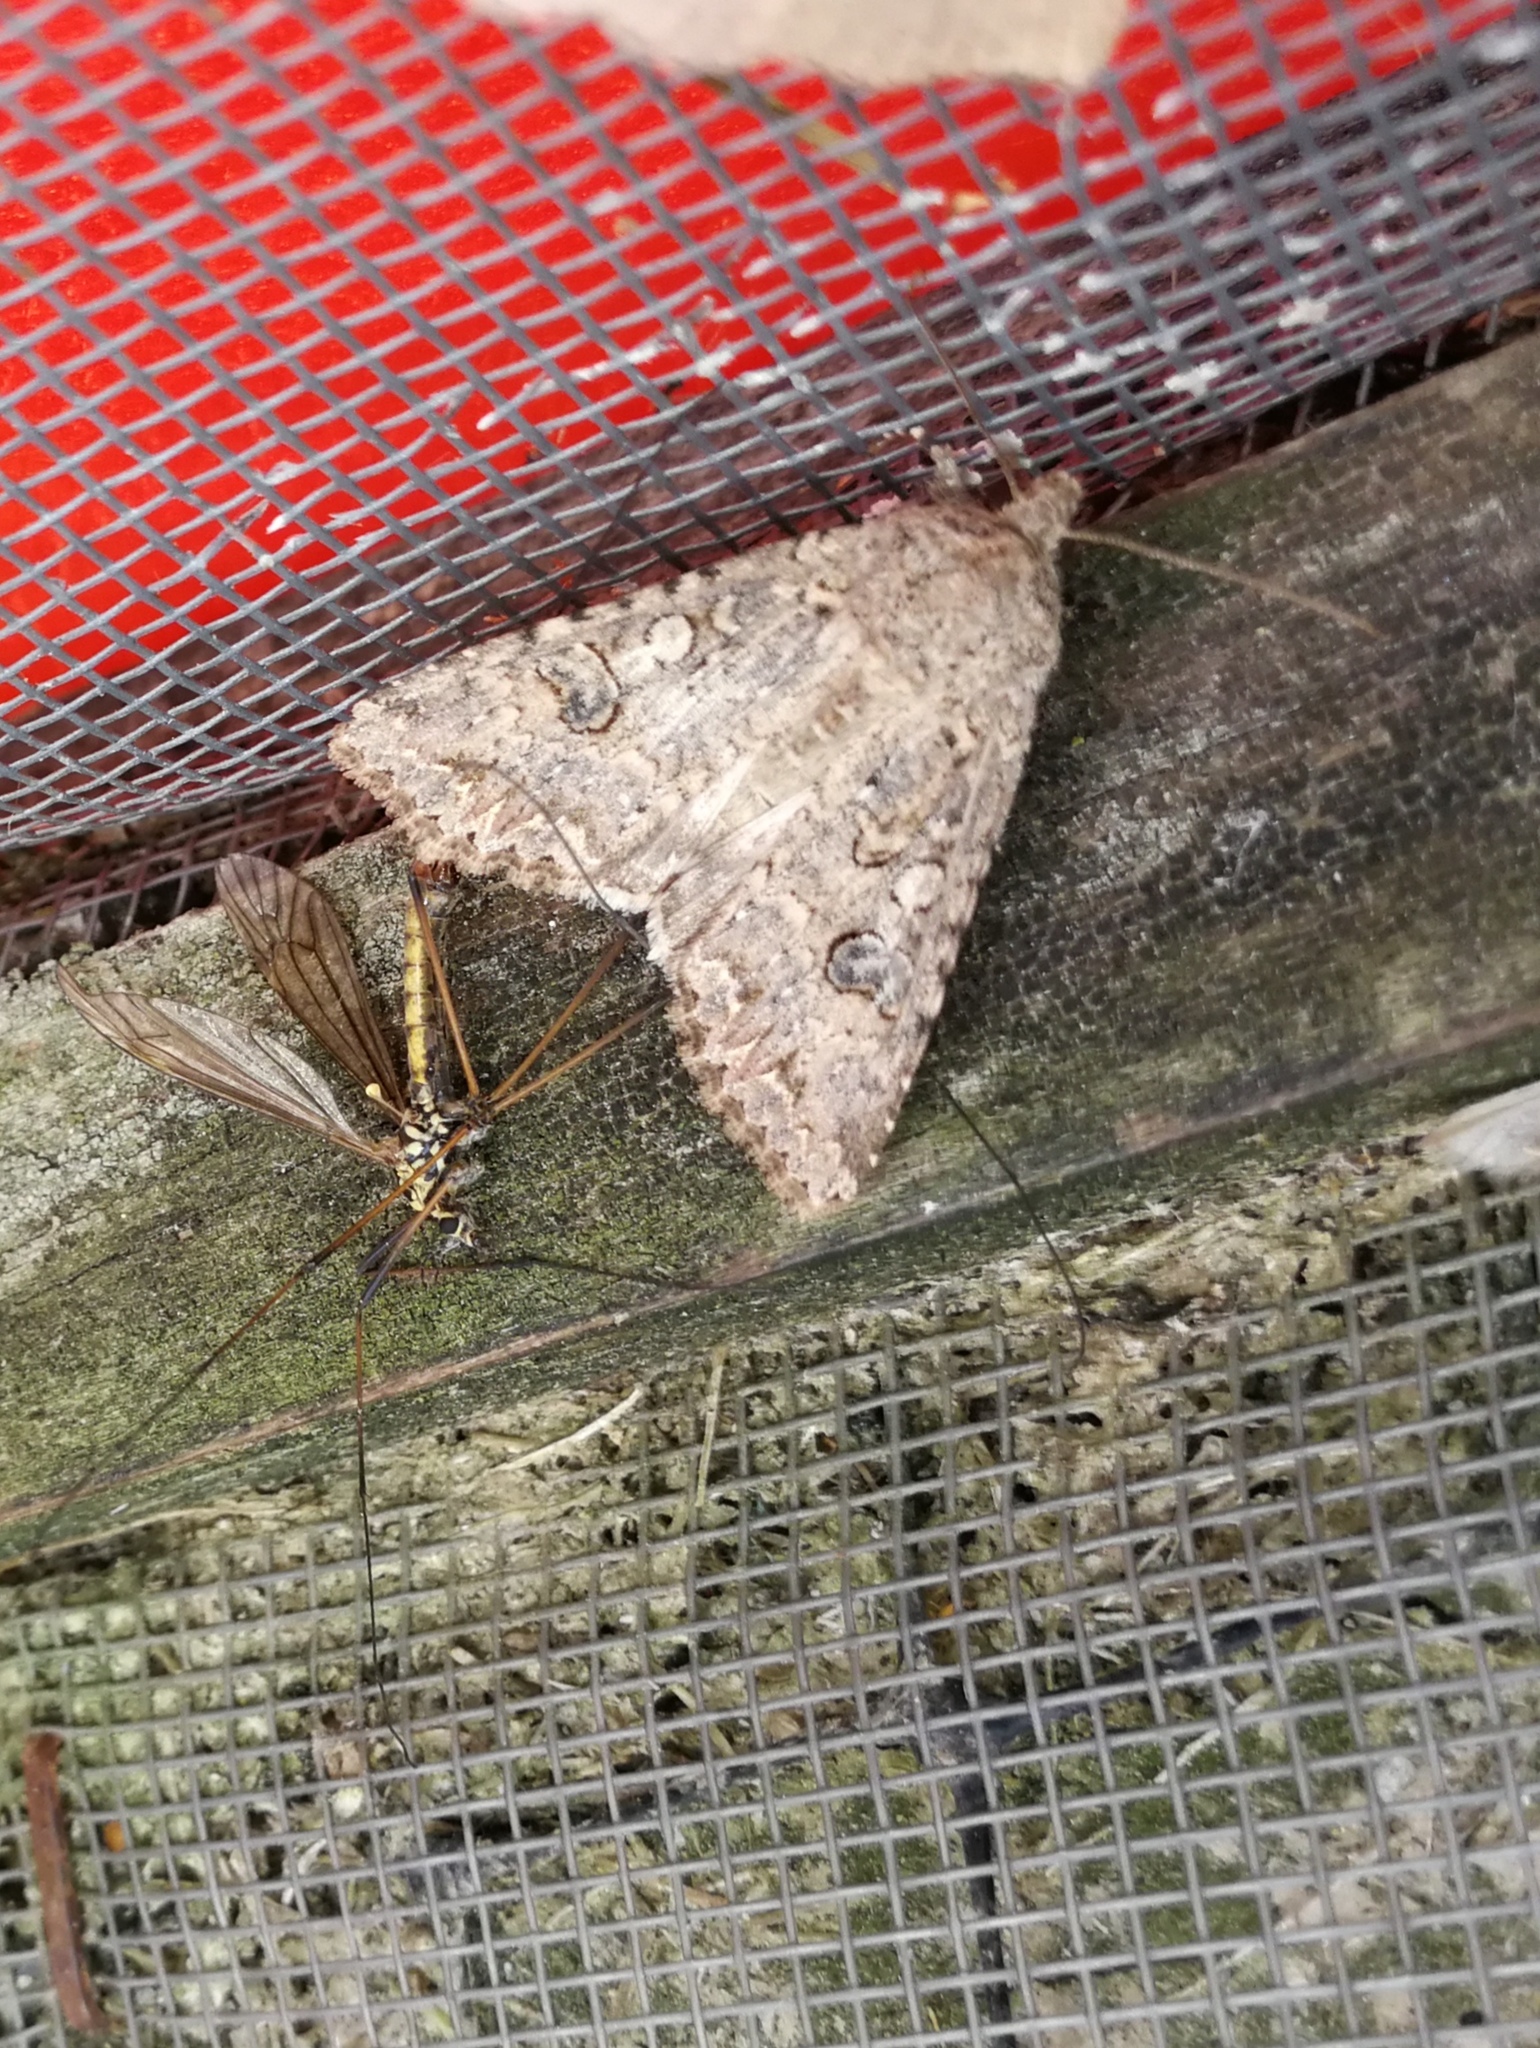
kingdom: Animalia
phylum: Arthropoda
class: Insecta
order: Lepidoptera
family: Noctuidae
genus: Anarta
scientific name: Anarta trifolii
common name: Clover cutworm moth
